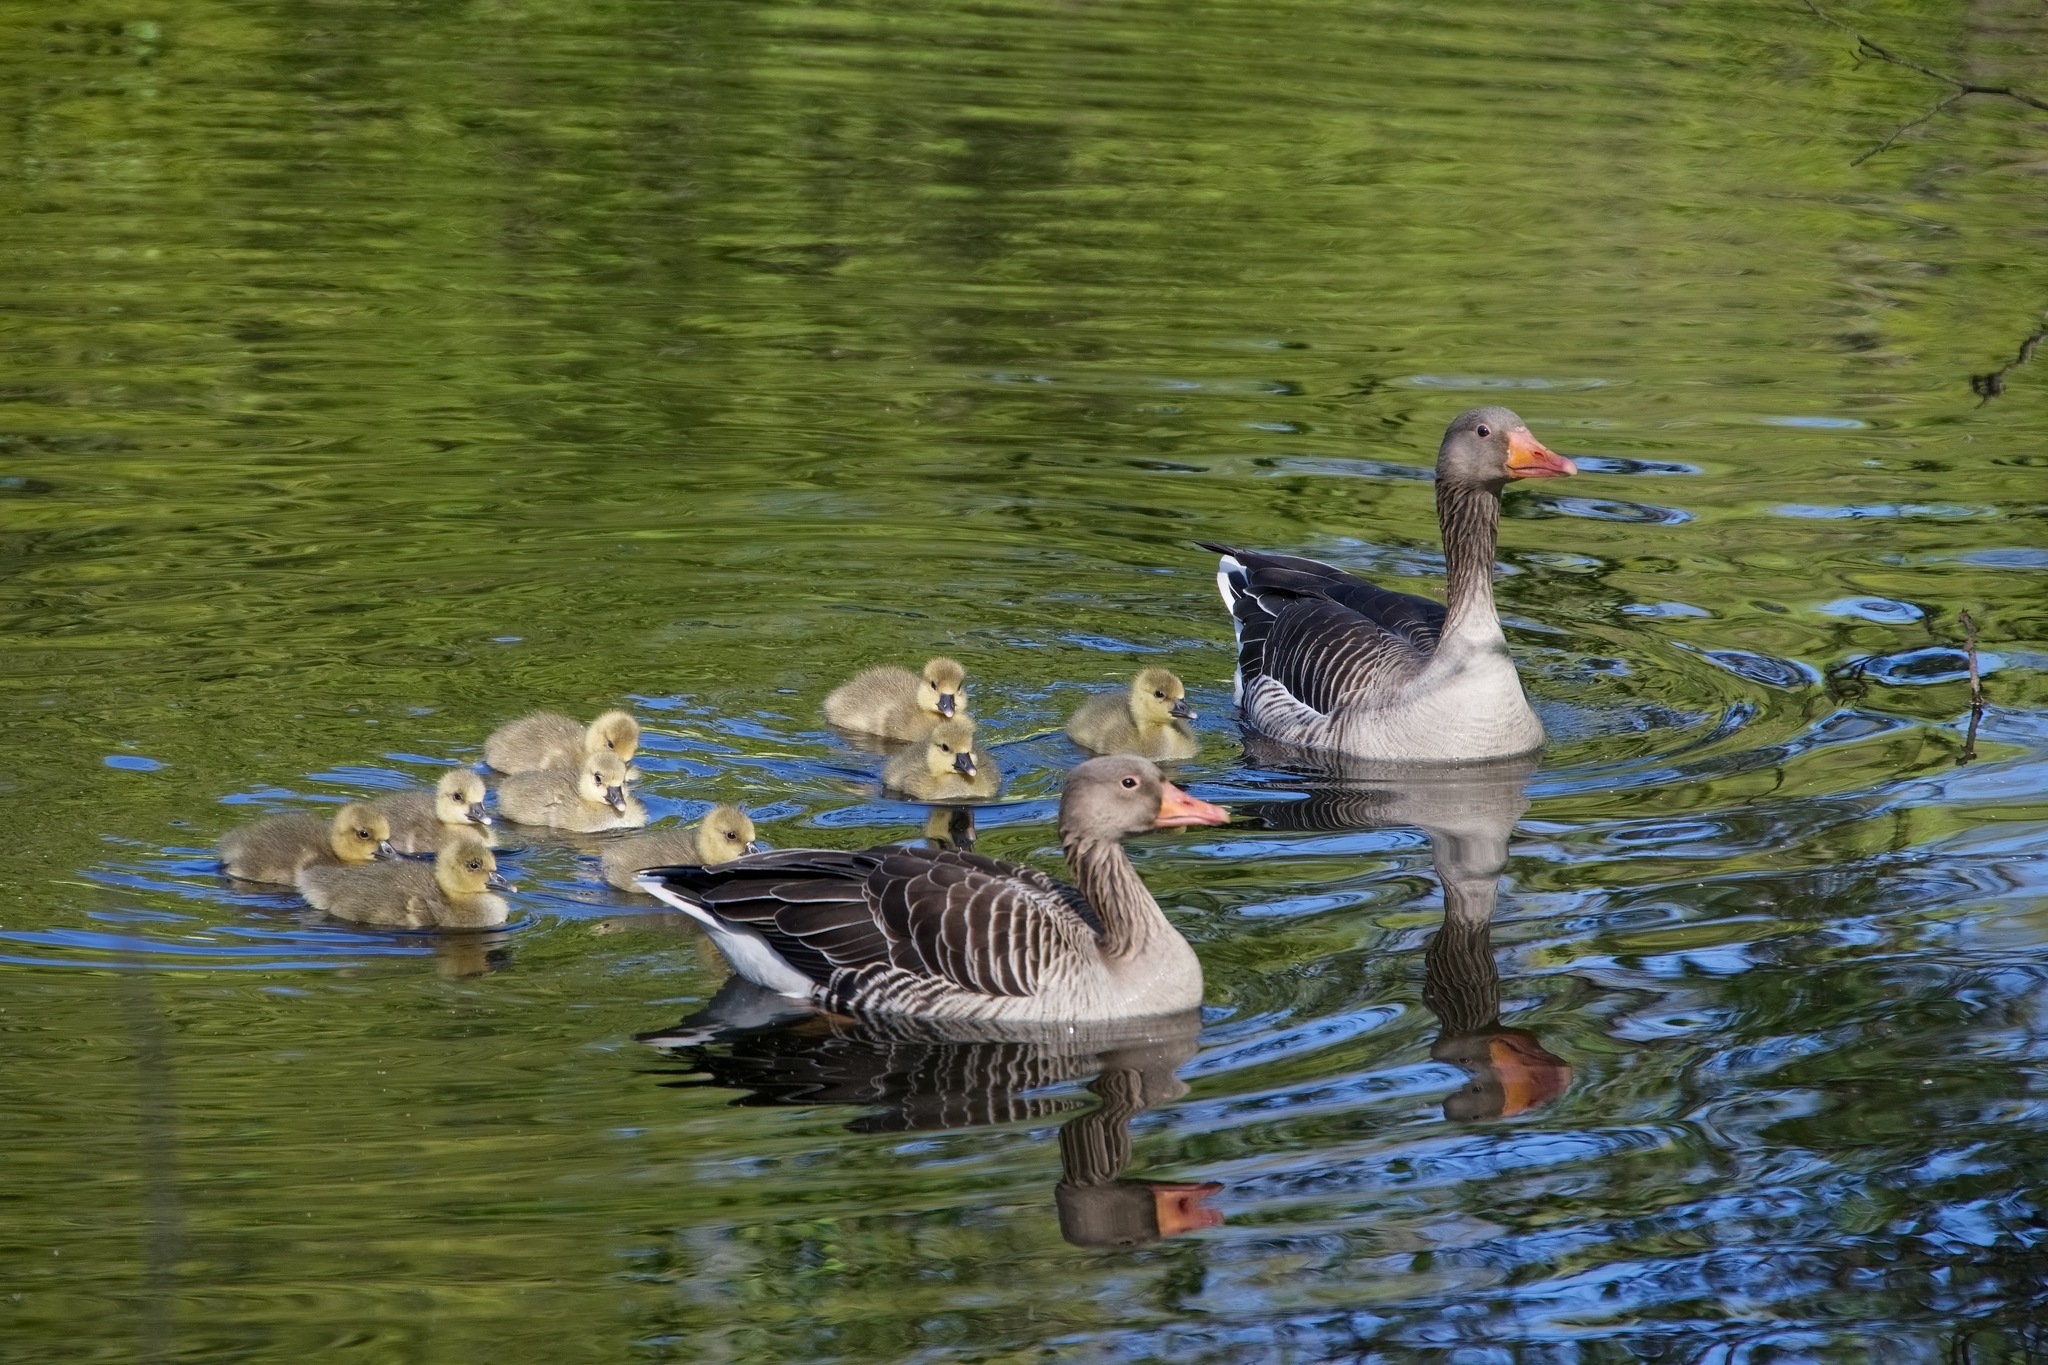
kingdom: Animalia
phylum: Chordata
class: Aves
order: Anseriformes
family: Anatidae
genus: Anser
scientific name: Anser anser
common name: Greylag goose
